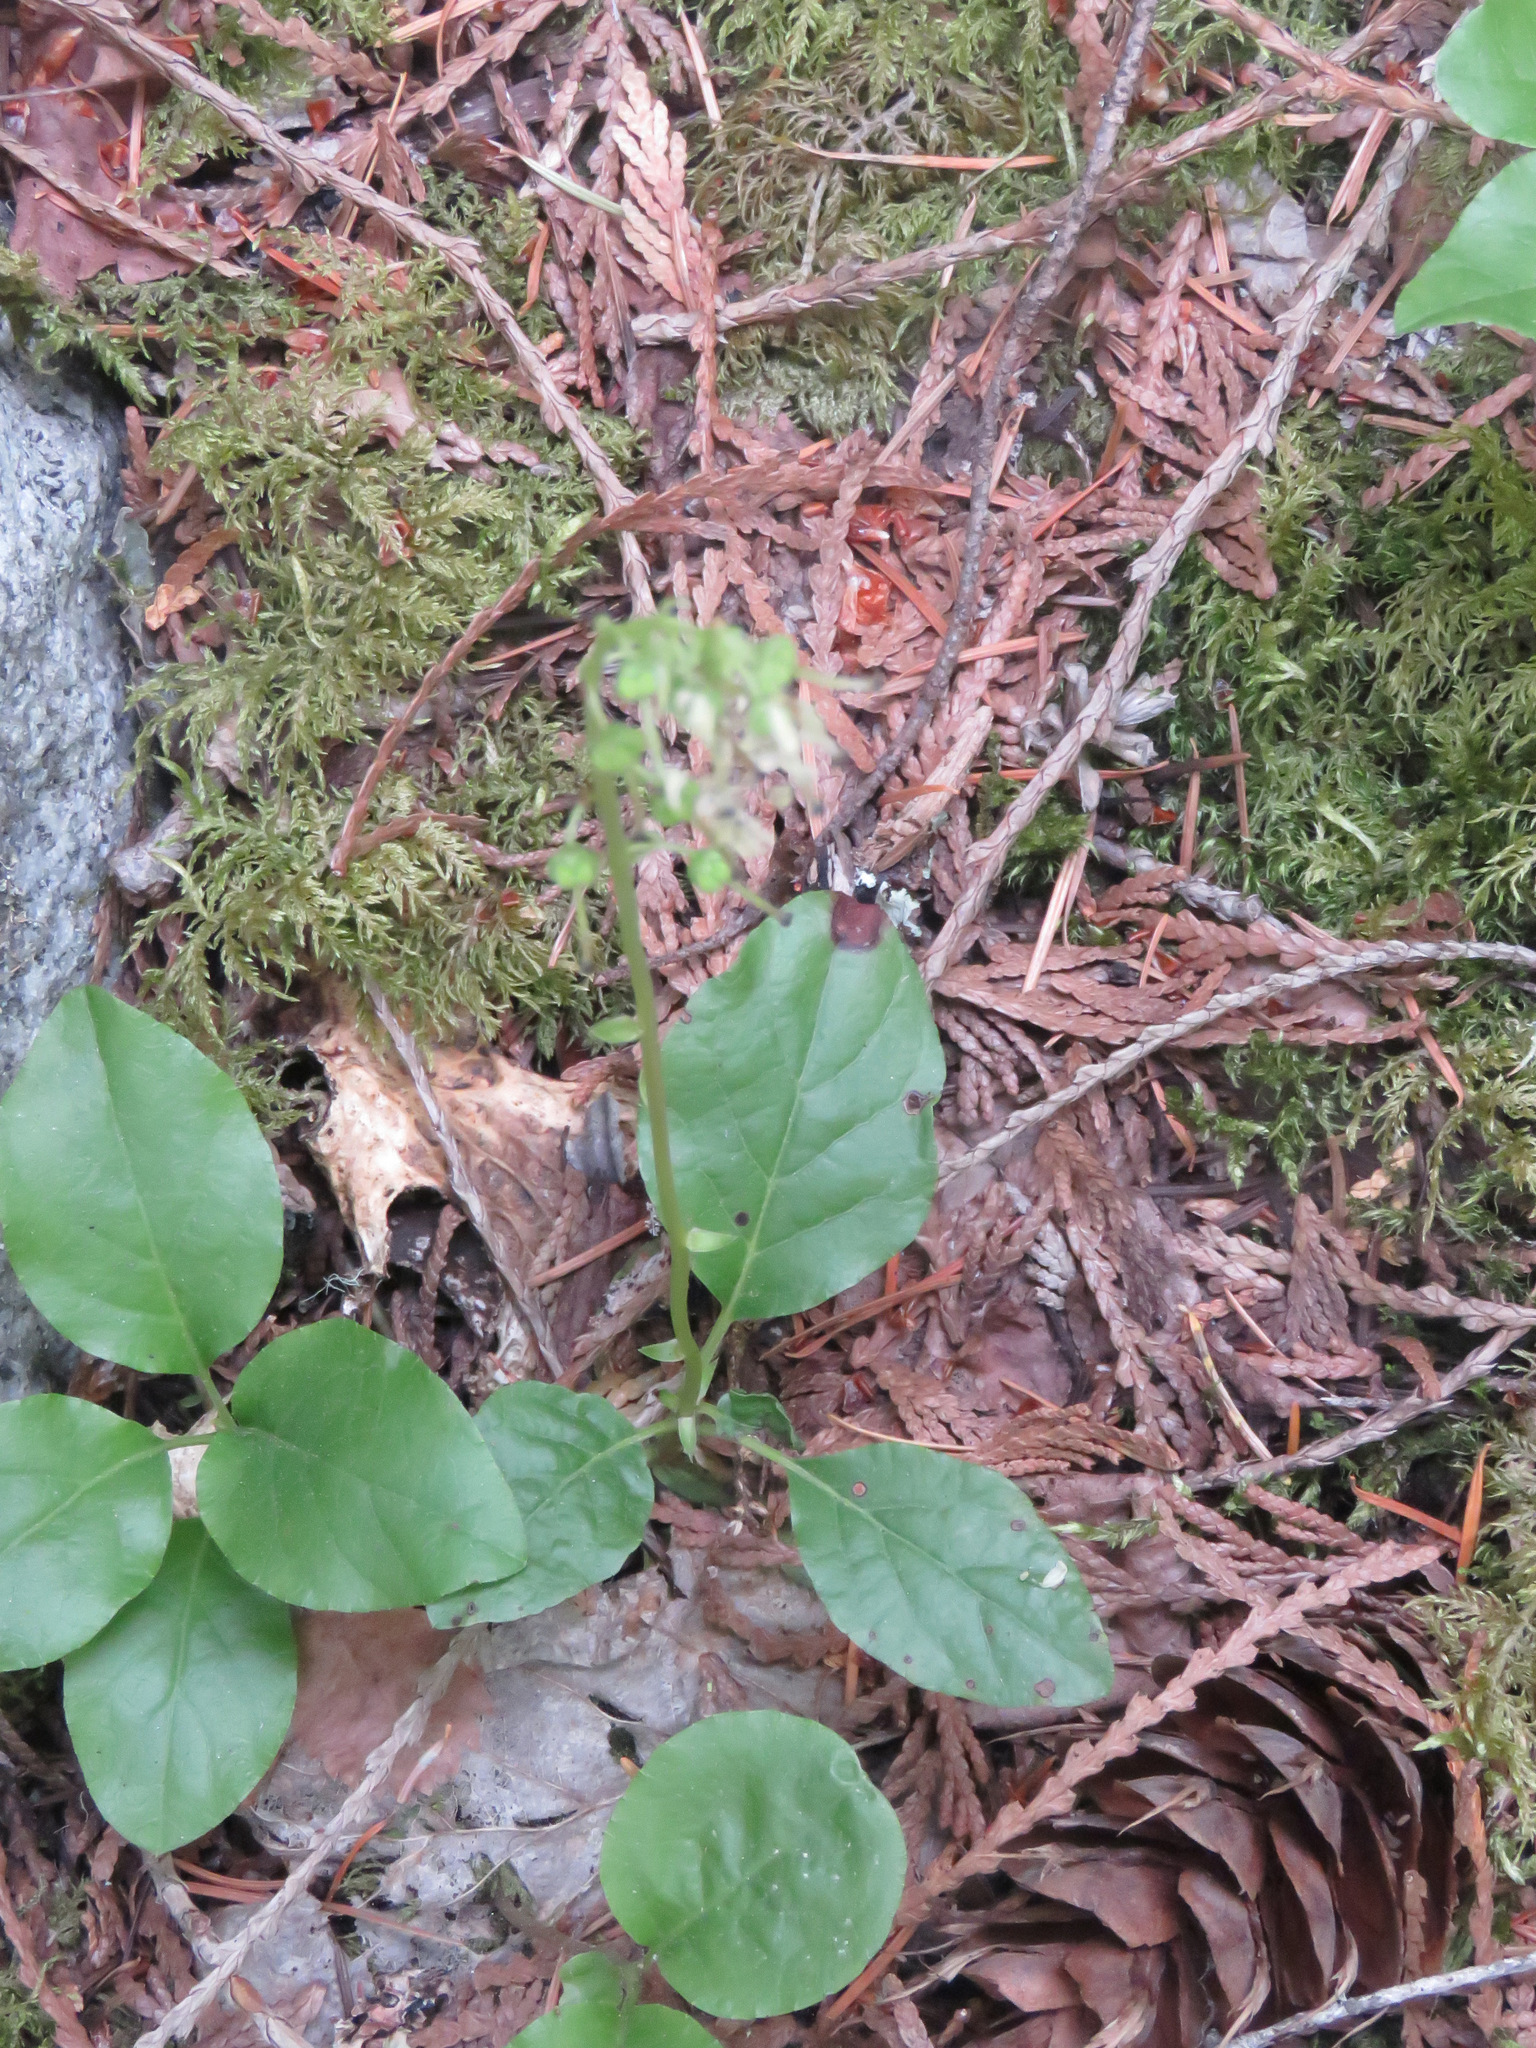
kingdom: Plantae
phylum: Tracheophyta
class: Magnoliopsida
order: Ericales
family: Ericaceae
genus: Orthilia
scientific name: Orthilia secunda
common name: One-sided orthilia
